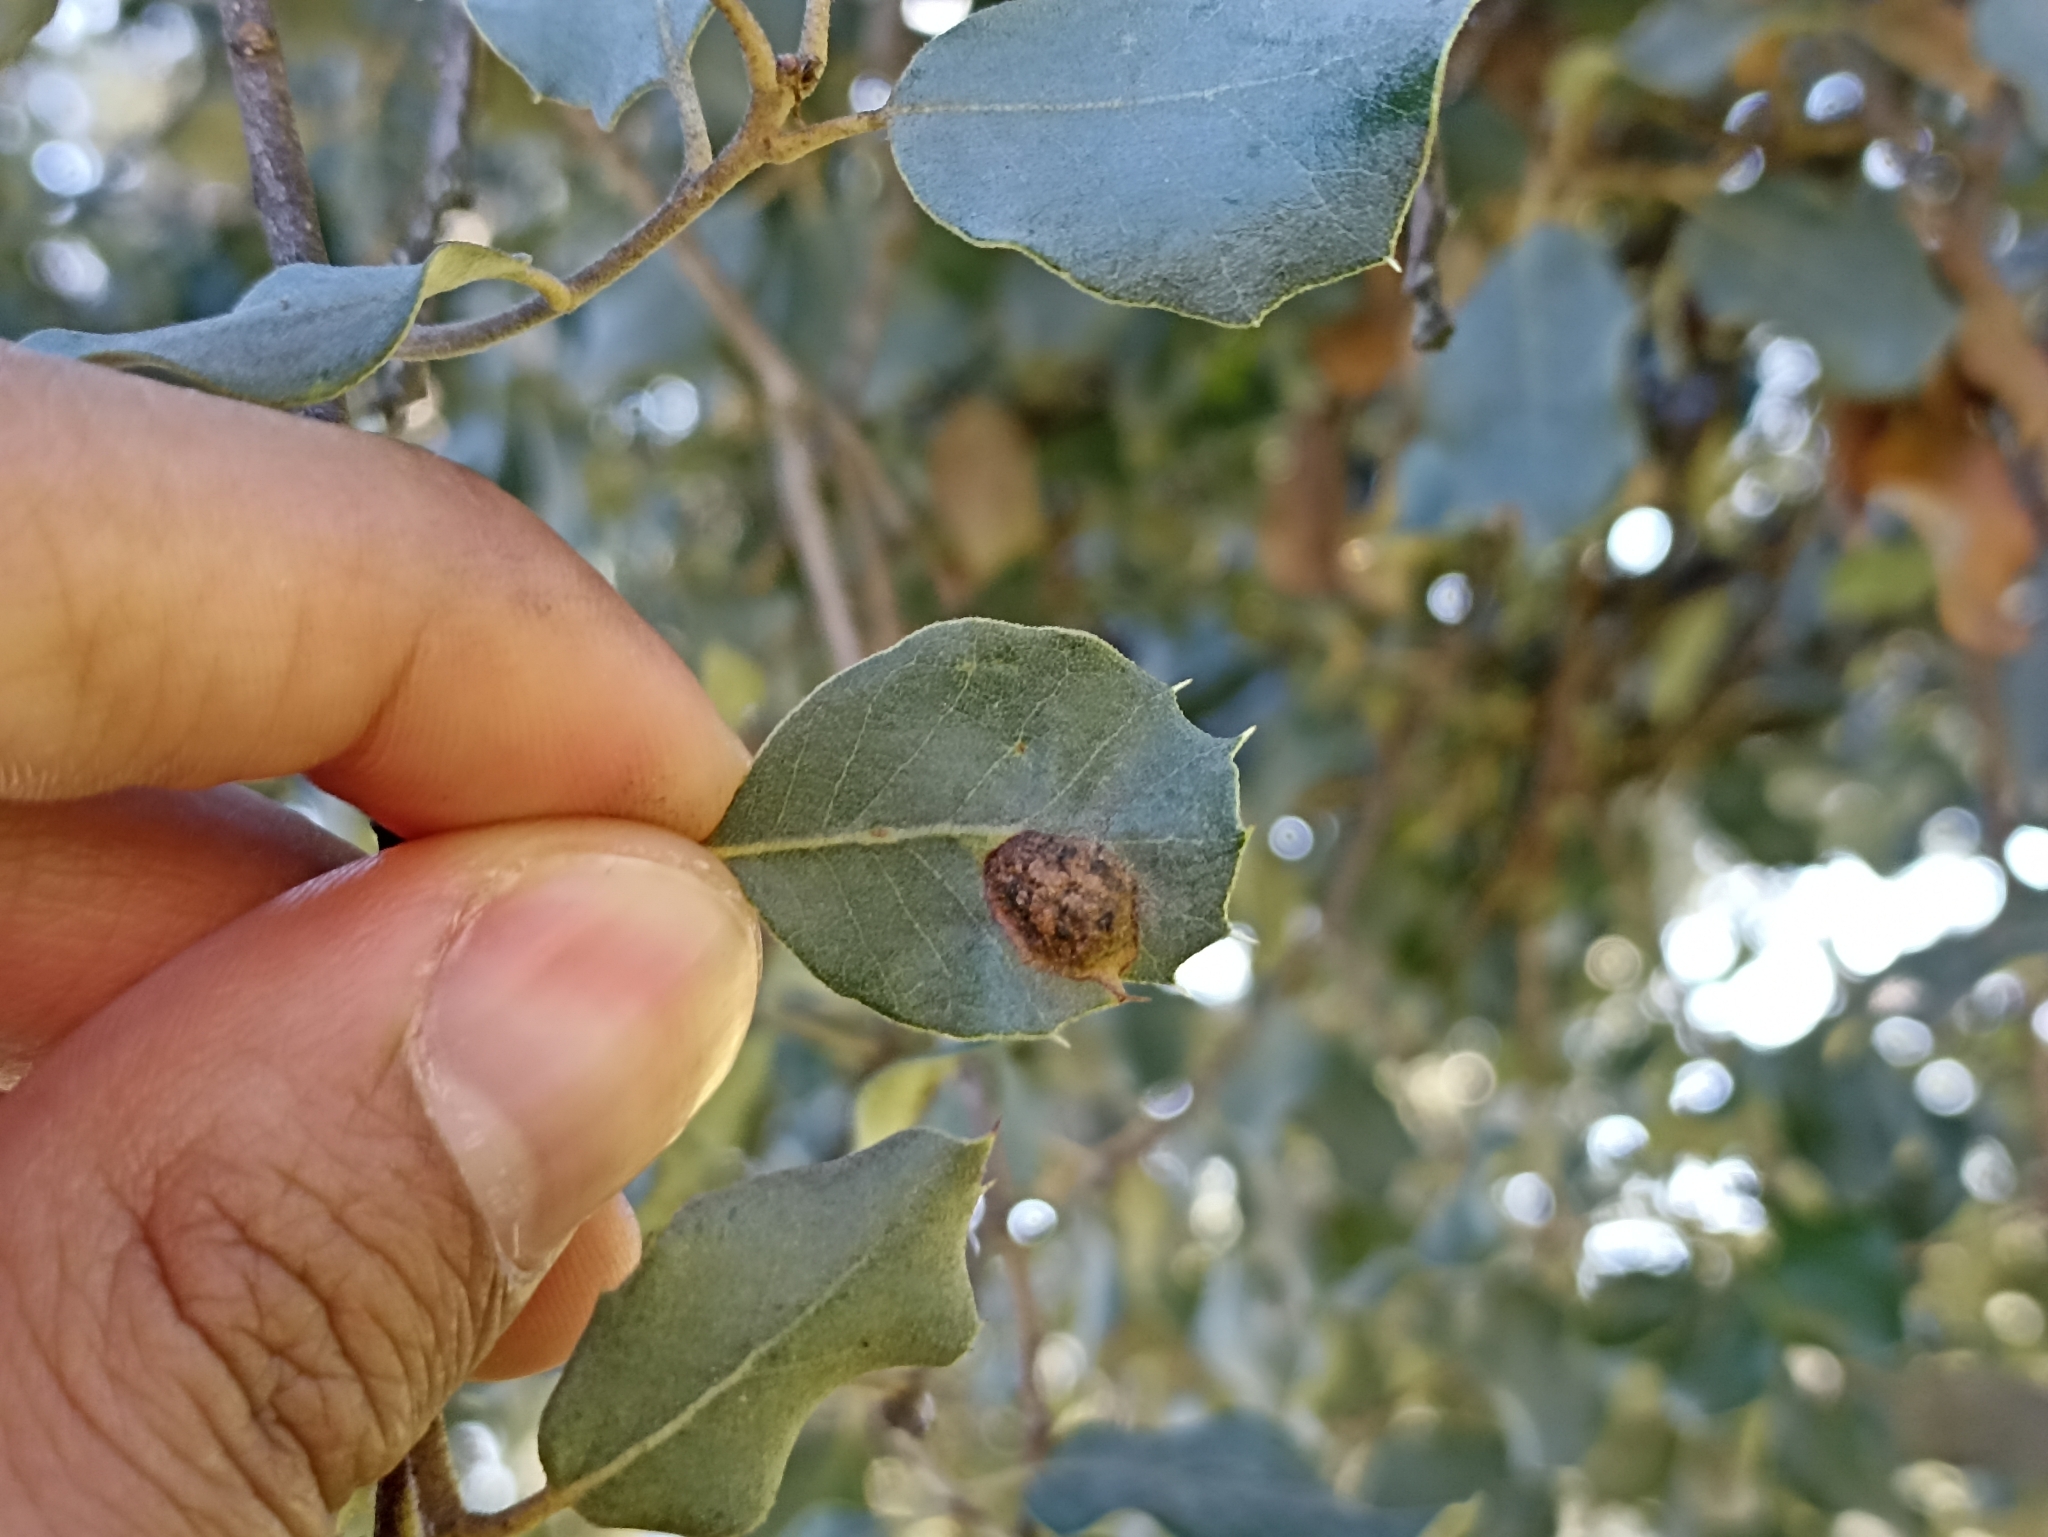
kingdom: Animalia
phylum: Arthropoda
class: Insecta
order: Hymenoptera
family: Cynipidae
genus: Plagiotrochus
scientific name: Plagiotrochus australis
